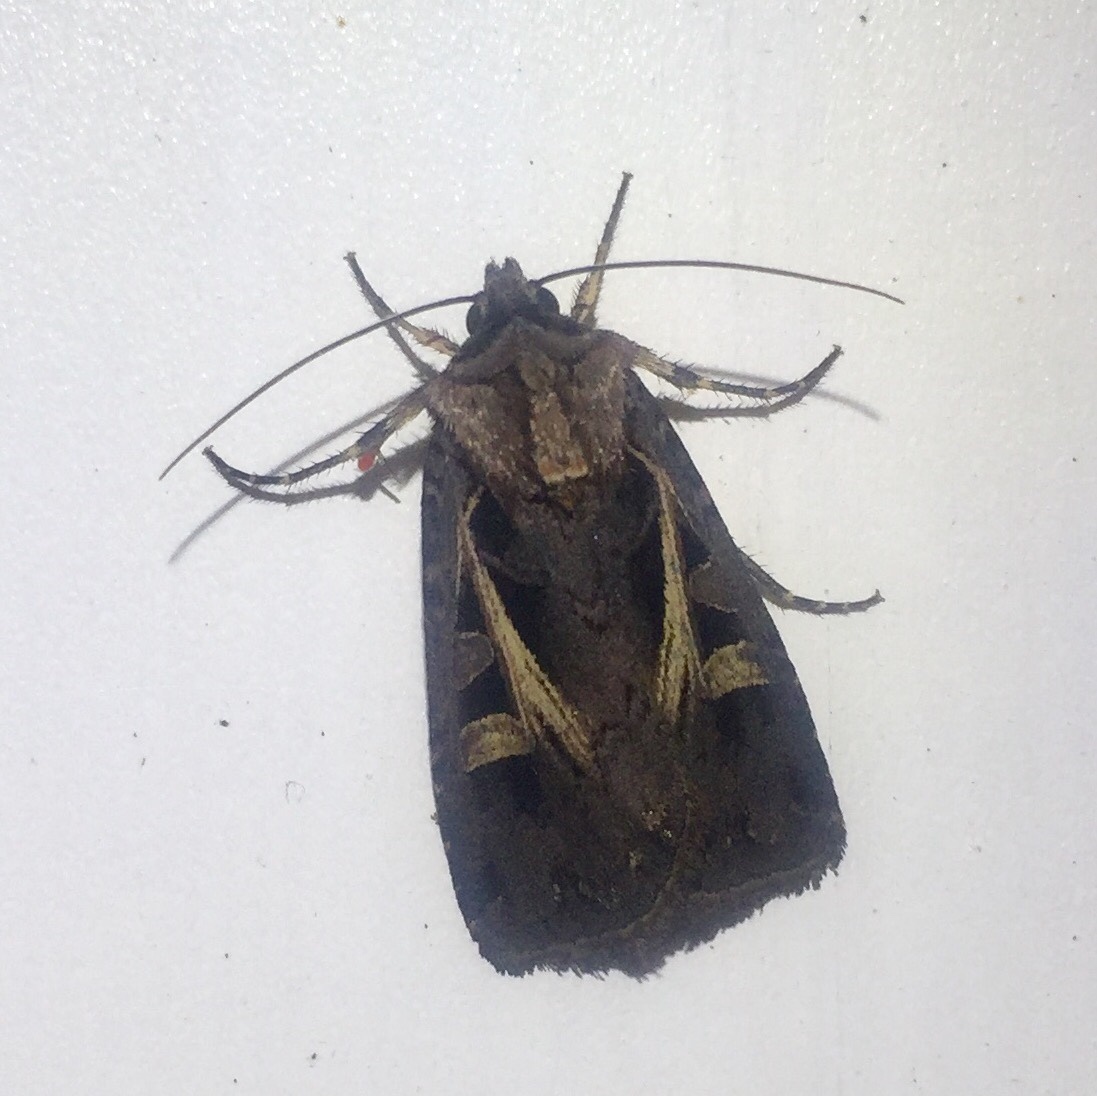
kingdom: Animalia
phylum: Arthropoda
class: Insecta
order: Lepidoptera
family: Noctuidae
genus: Feltia
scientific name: Feltia herilis
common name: Master's dart
